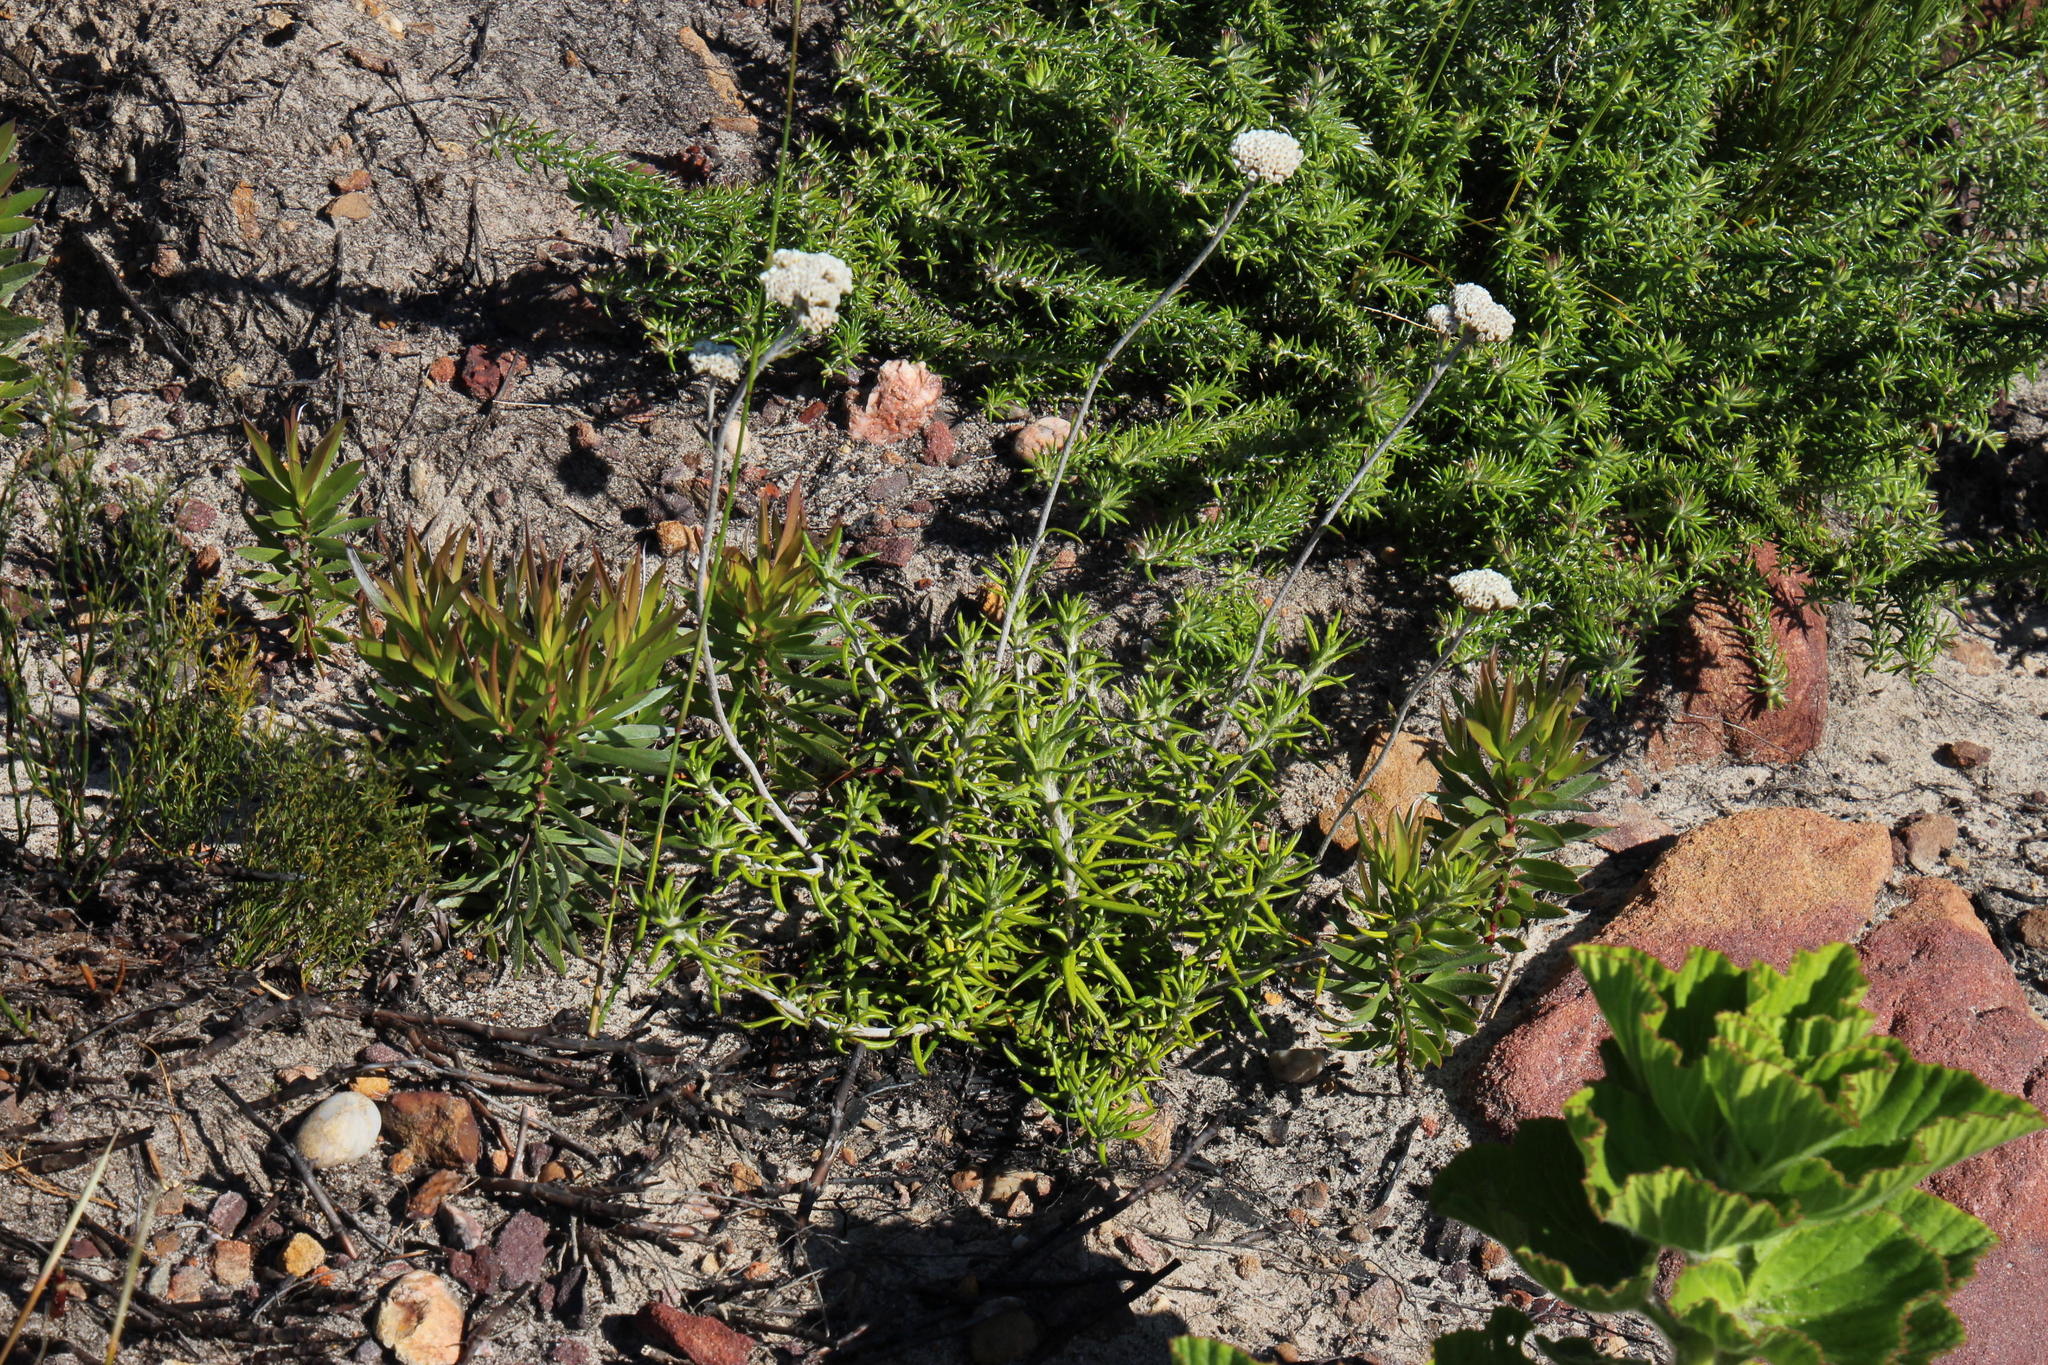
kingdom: Plantae
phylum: Tracheophyta
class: Magnoliopsida
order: Asterales
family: Asteraceae
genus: Anaxeton
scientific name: Anaxeton arborescens
